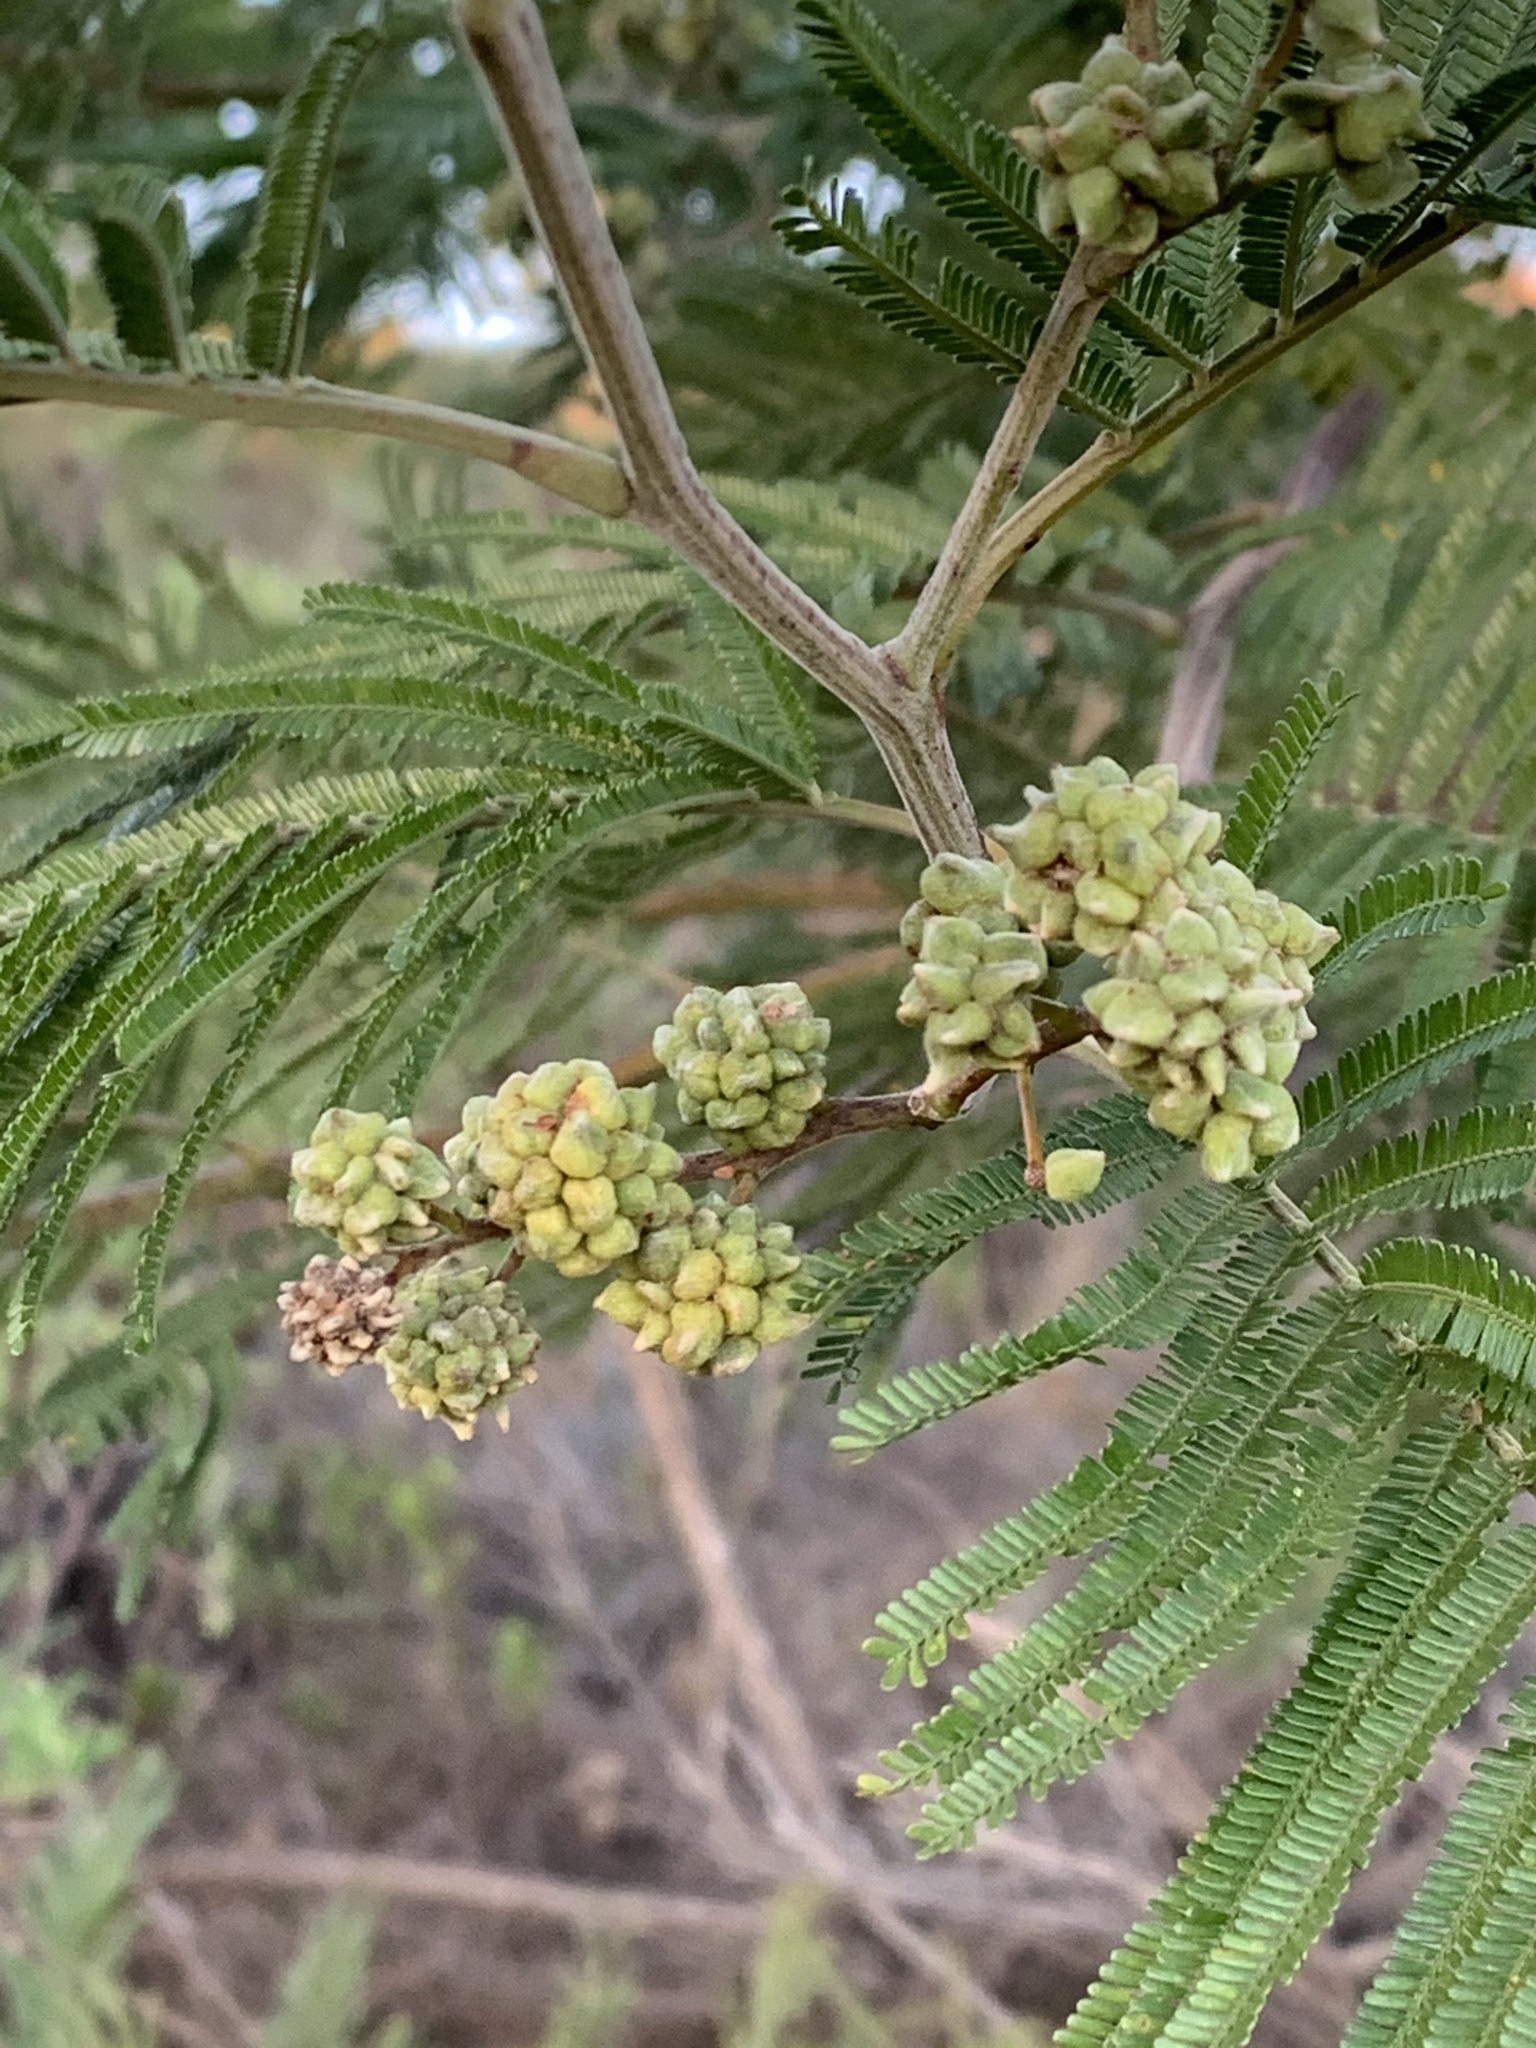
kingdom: Animalia
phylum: Arthropoda
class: Insecta
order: Diptera
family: Cecidomyiidae
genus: Dasineura
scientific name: Dasineura rubiformis
